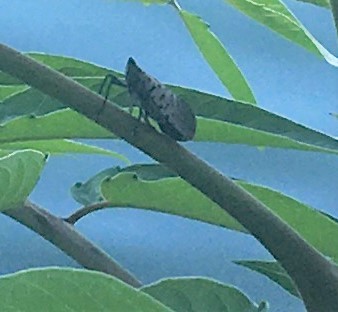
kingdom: Animalia
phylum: Arthropoda
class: Insecta
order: Hemiptera
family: Fulgoridae
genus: Lycorma
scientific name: Lycorma delicatula
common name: Spotted lanternfly
